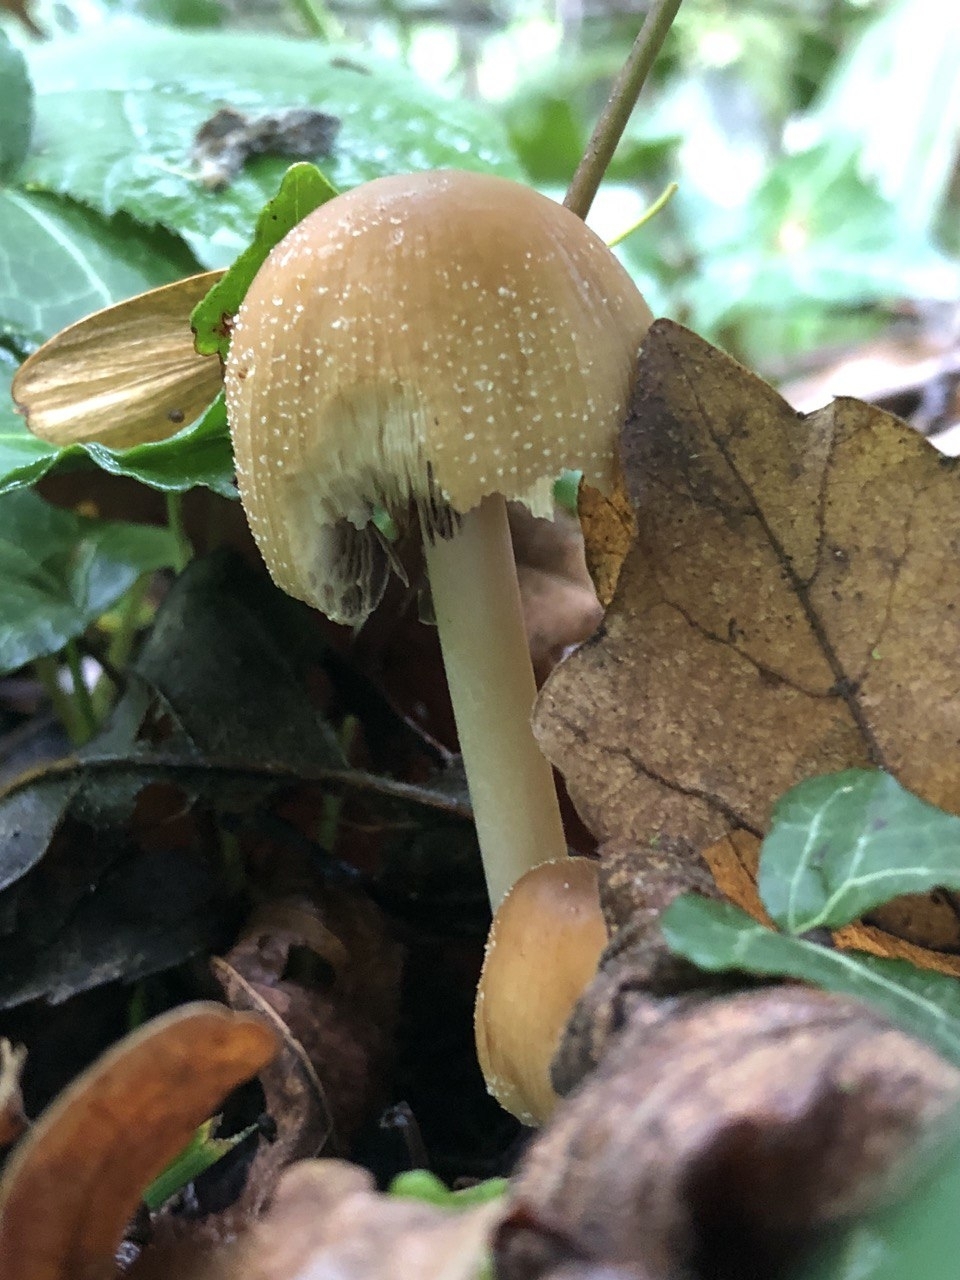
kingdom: Fungi
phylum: Basidiomycota
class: Agaricomycetes
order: Agaricales
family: Psathyrellaceae
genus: Coprinellus
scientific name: Coprinellus micaceus
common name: Glistening ink-cap
